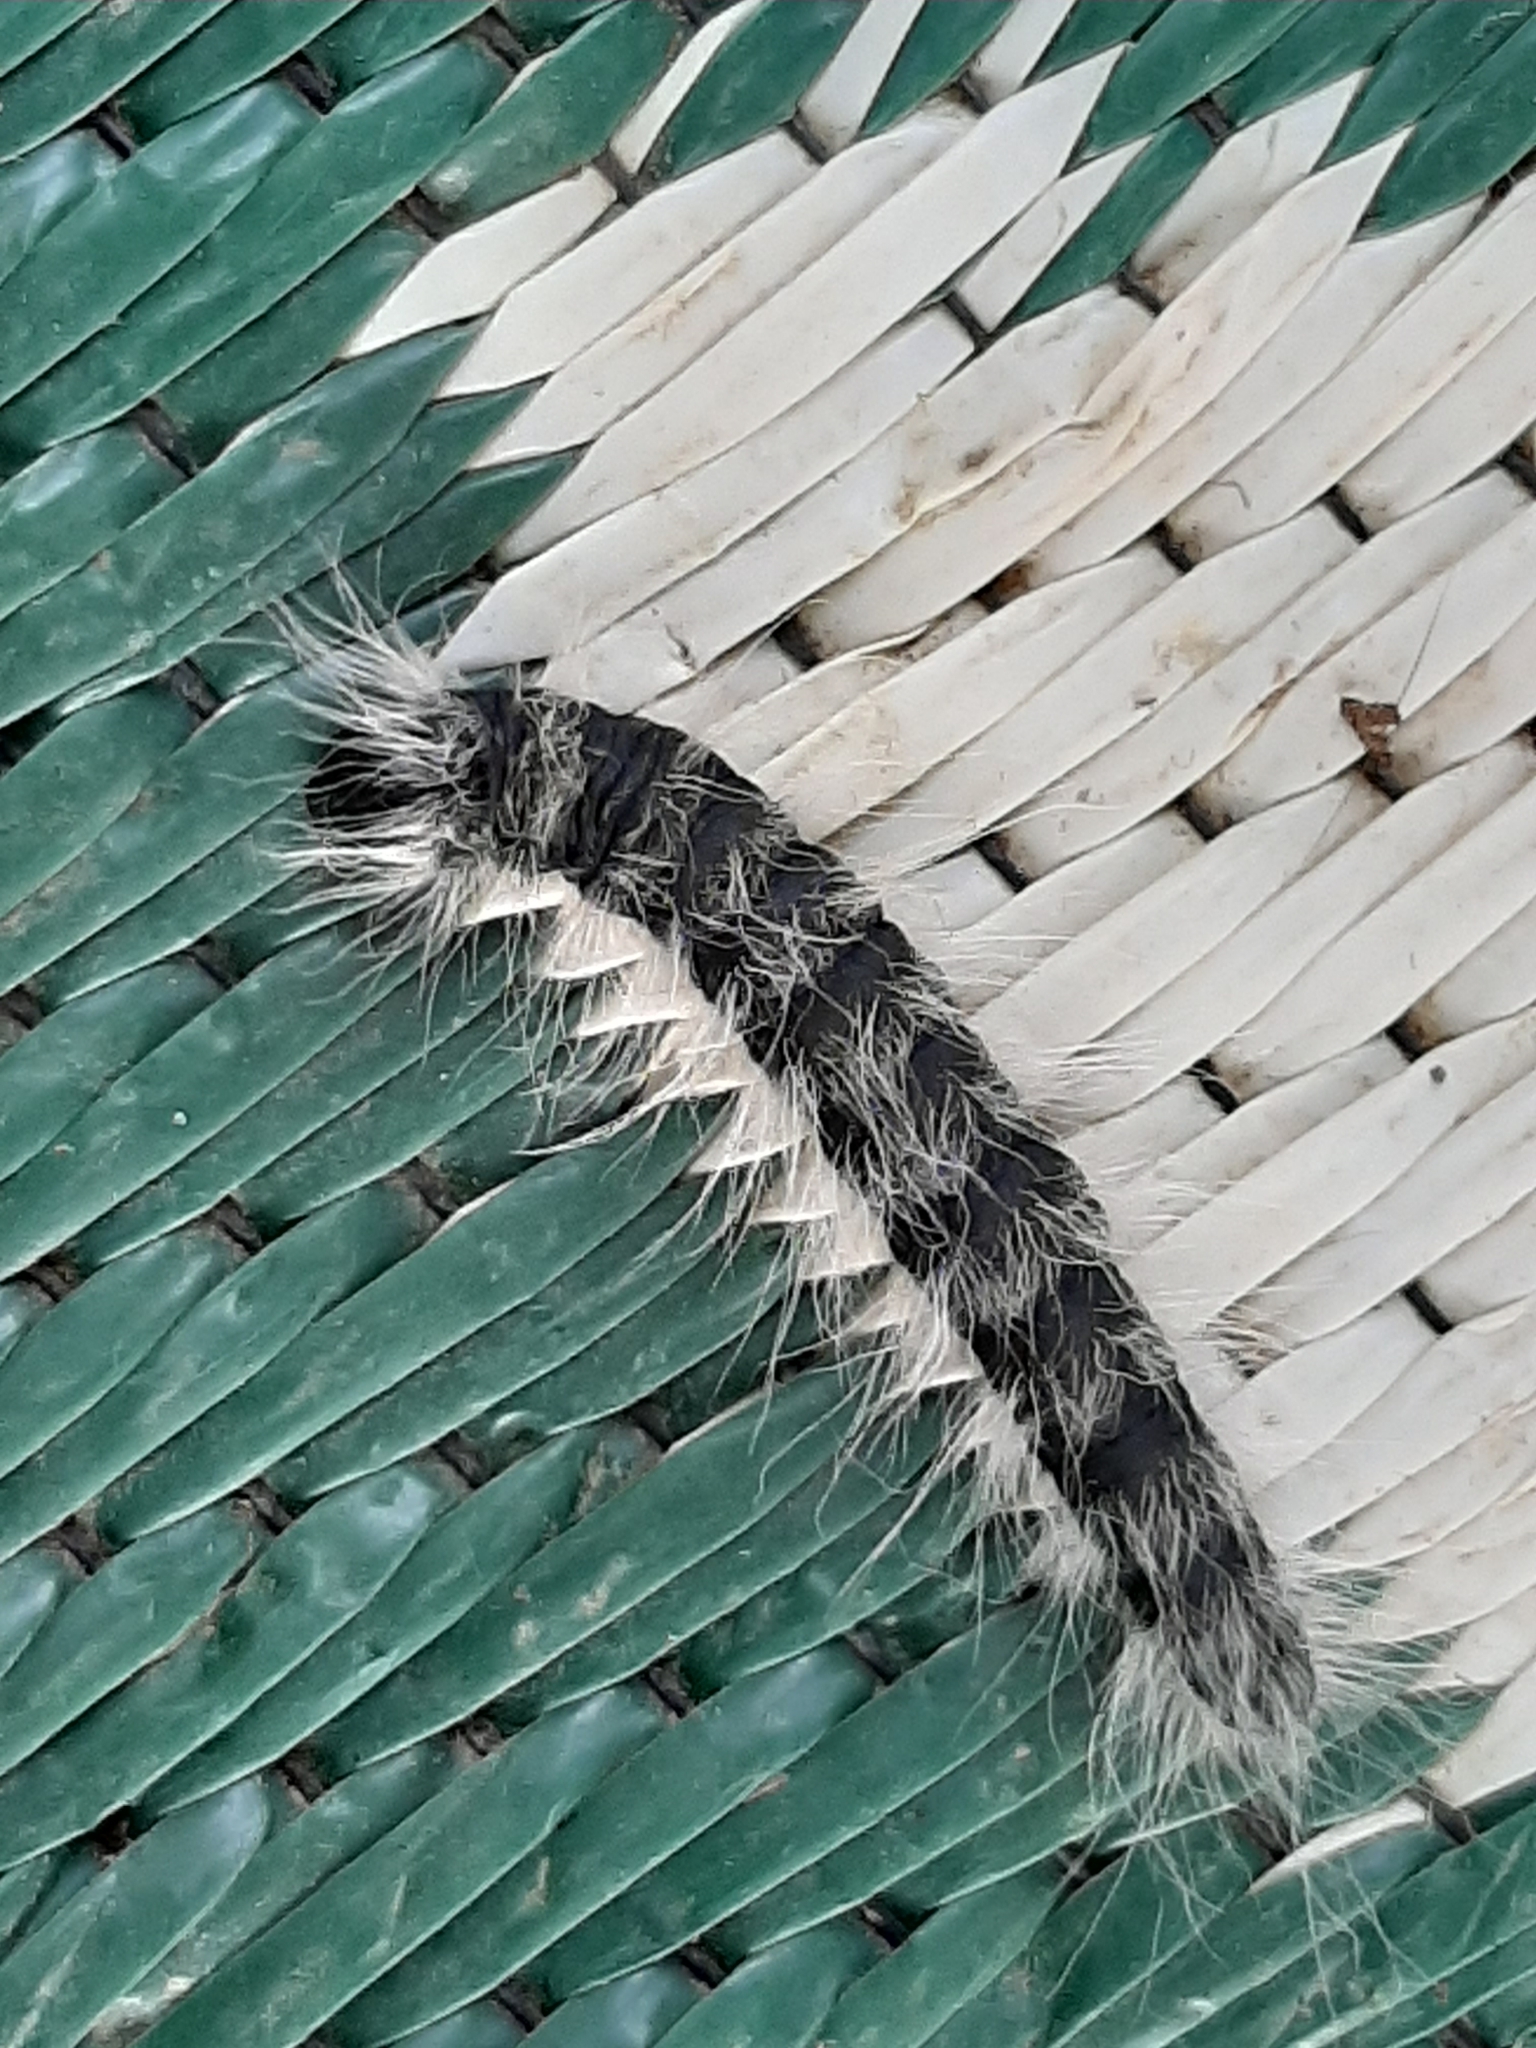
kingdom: Animalia
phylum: Arthropoda
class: Insecta
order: Lepidoptera
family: Notodontidae
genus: Datana
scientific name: Datana integerrima
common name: Walnut caterpillar
